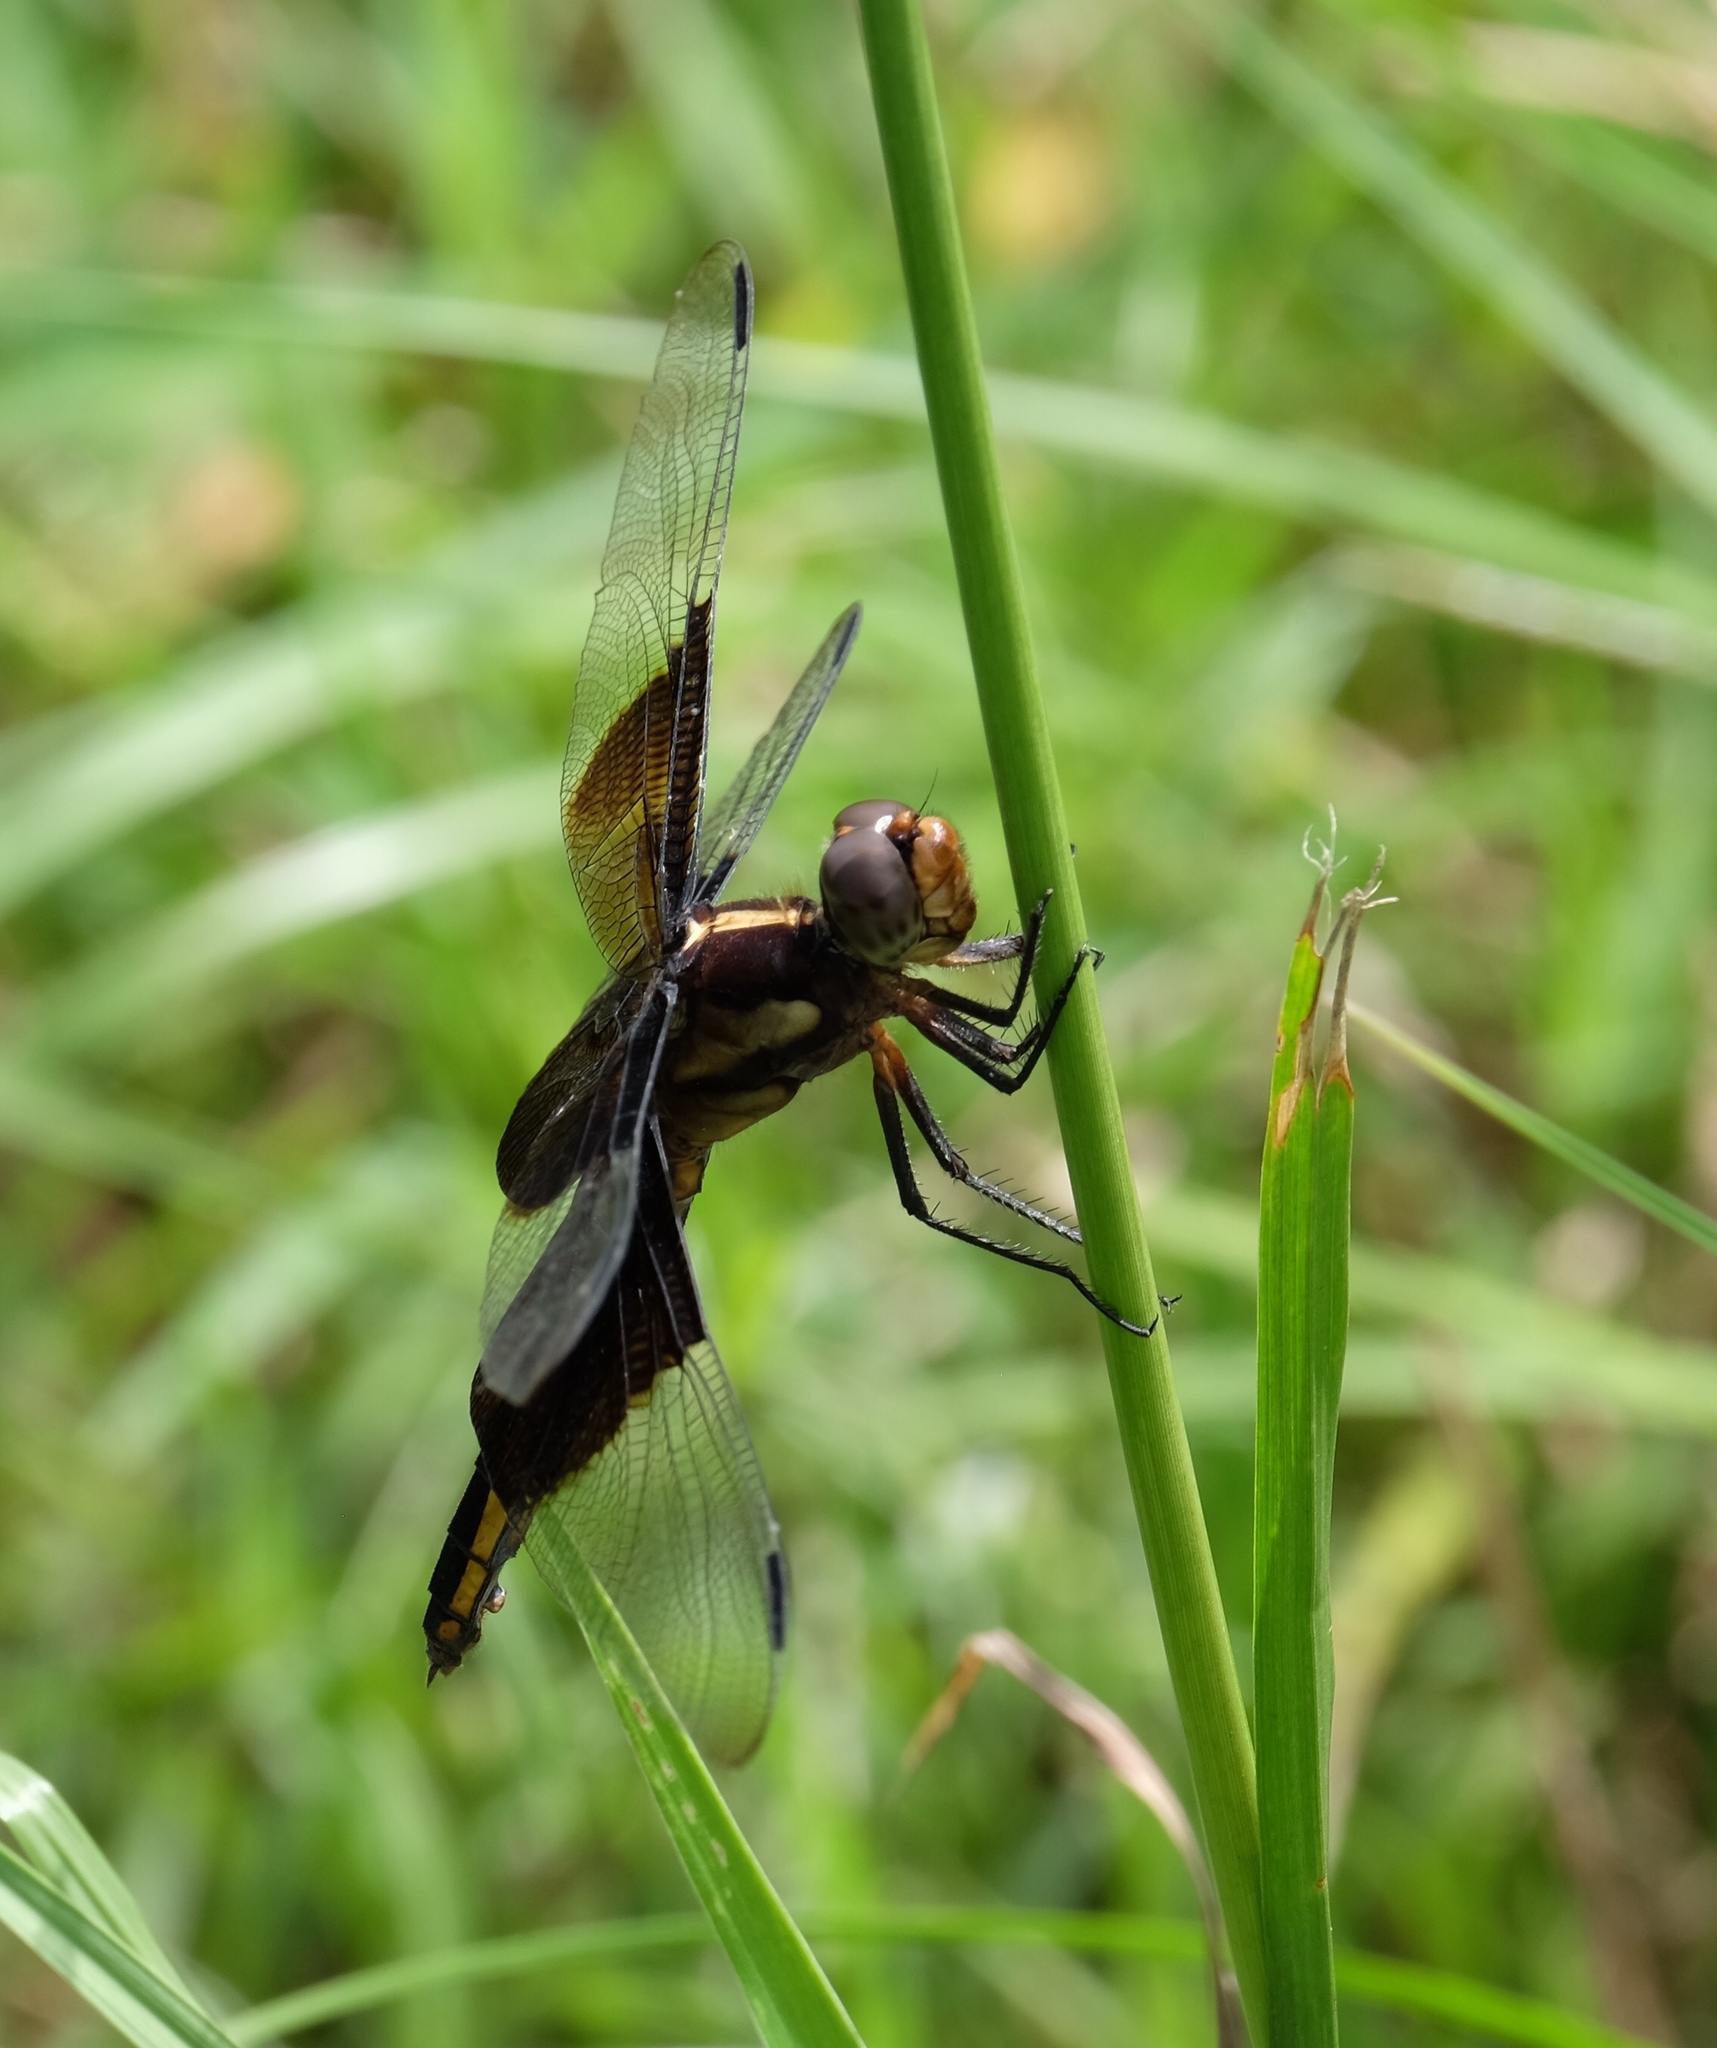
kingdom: Animalia
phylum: Arthropoda
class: Insecta
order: Odonata
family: Libellulidae
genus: Libellula
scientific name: Libellula luctuosa
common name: Widow skimmer
